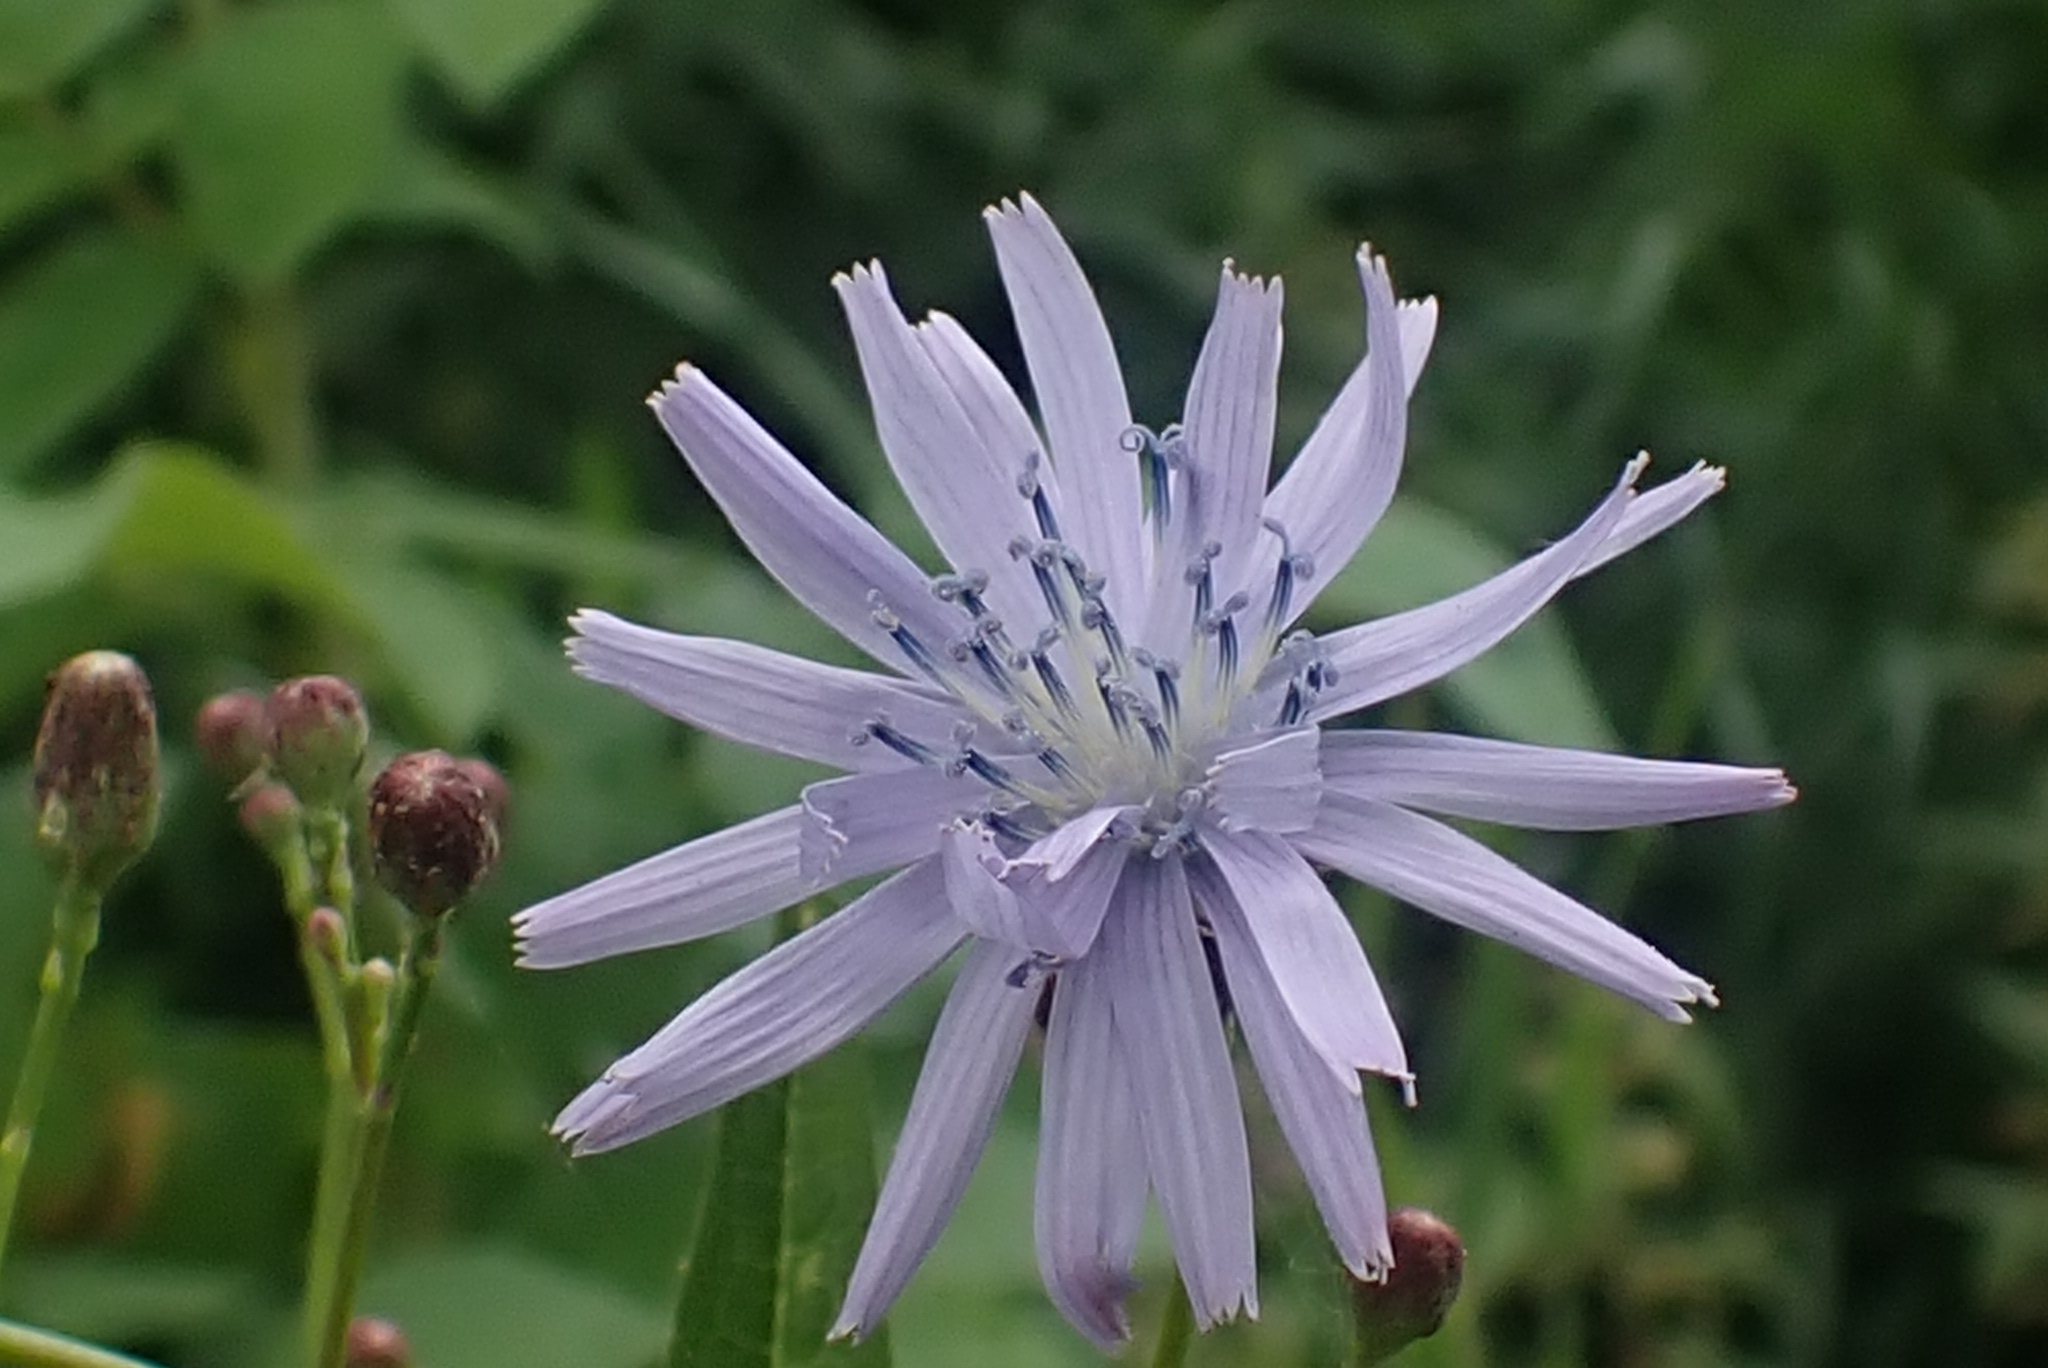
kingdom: Plantae
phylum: Tracheophyta
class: Magnoliopsida
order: Asterales
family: Asteraceae
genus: Lactuca
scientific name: Lactuca sibirica
